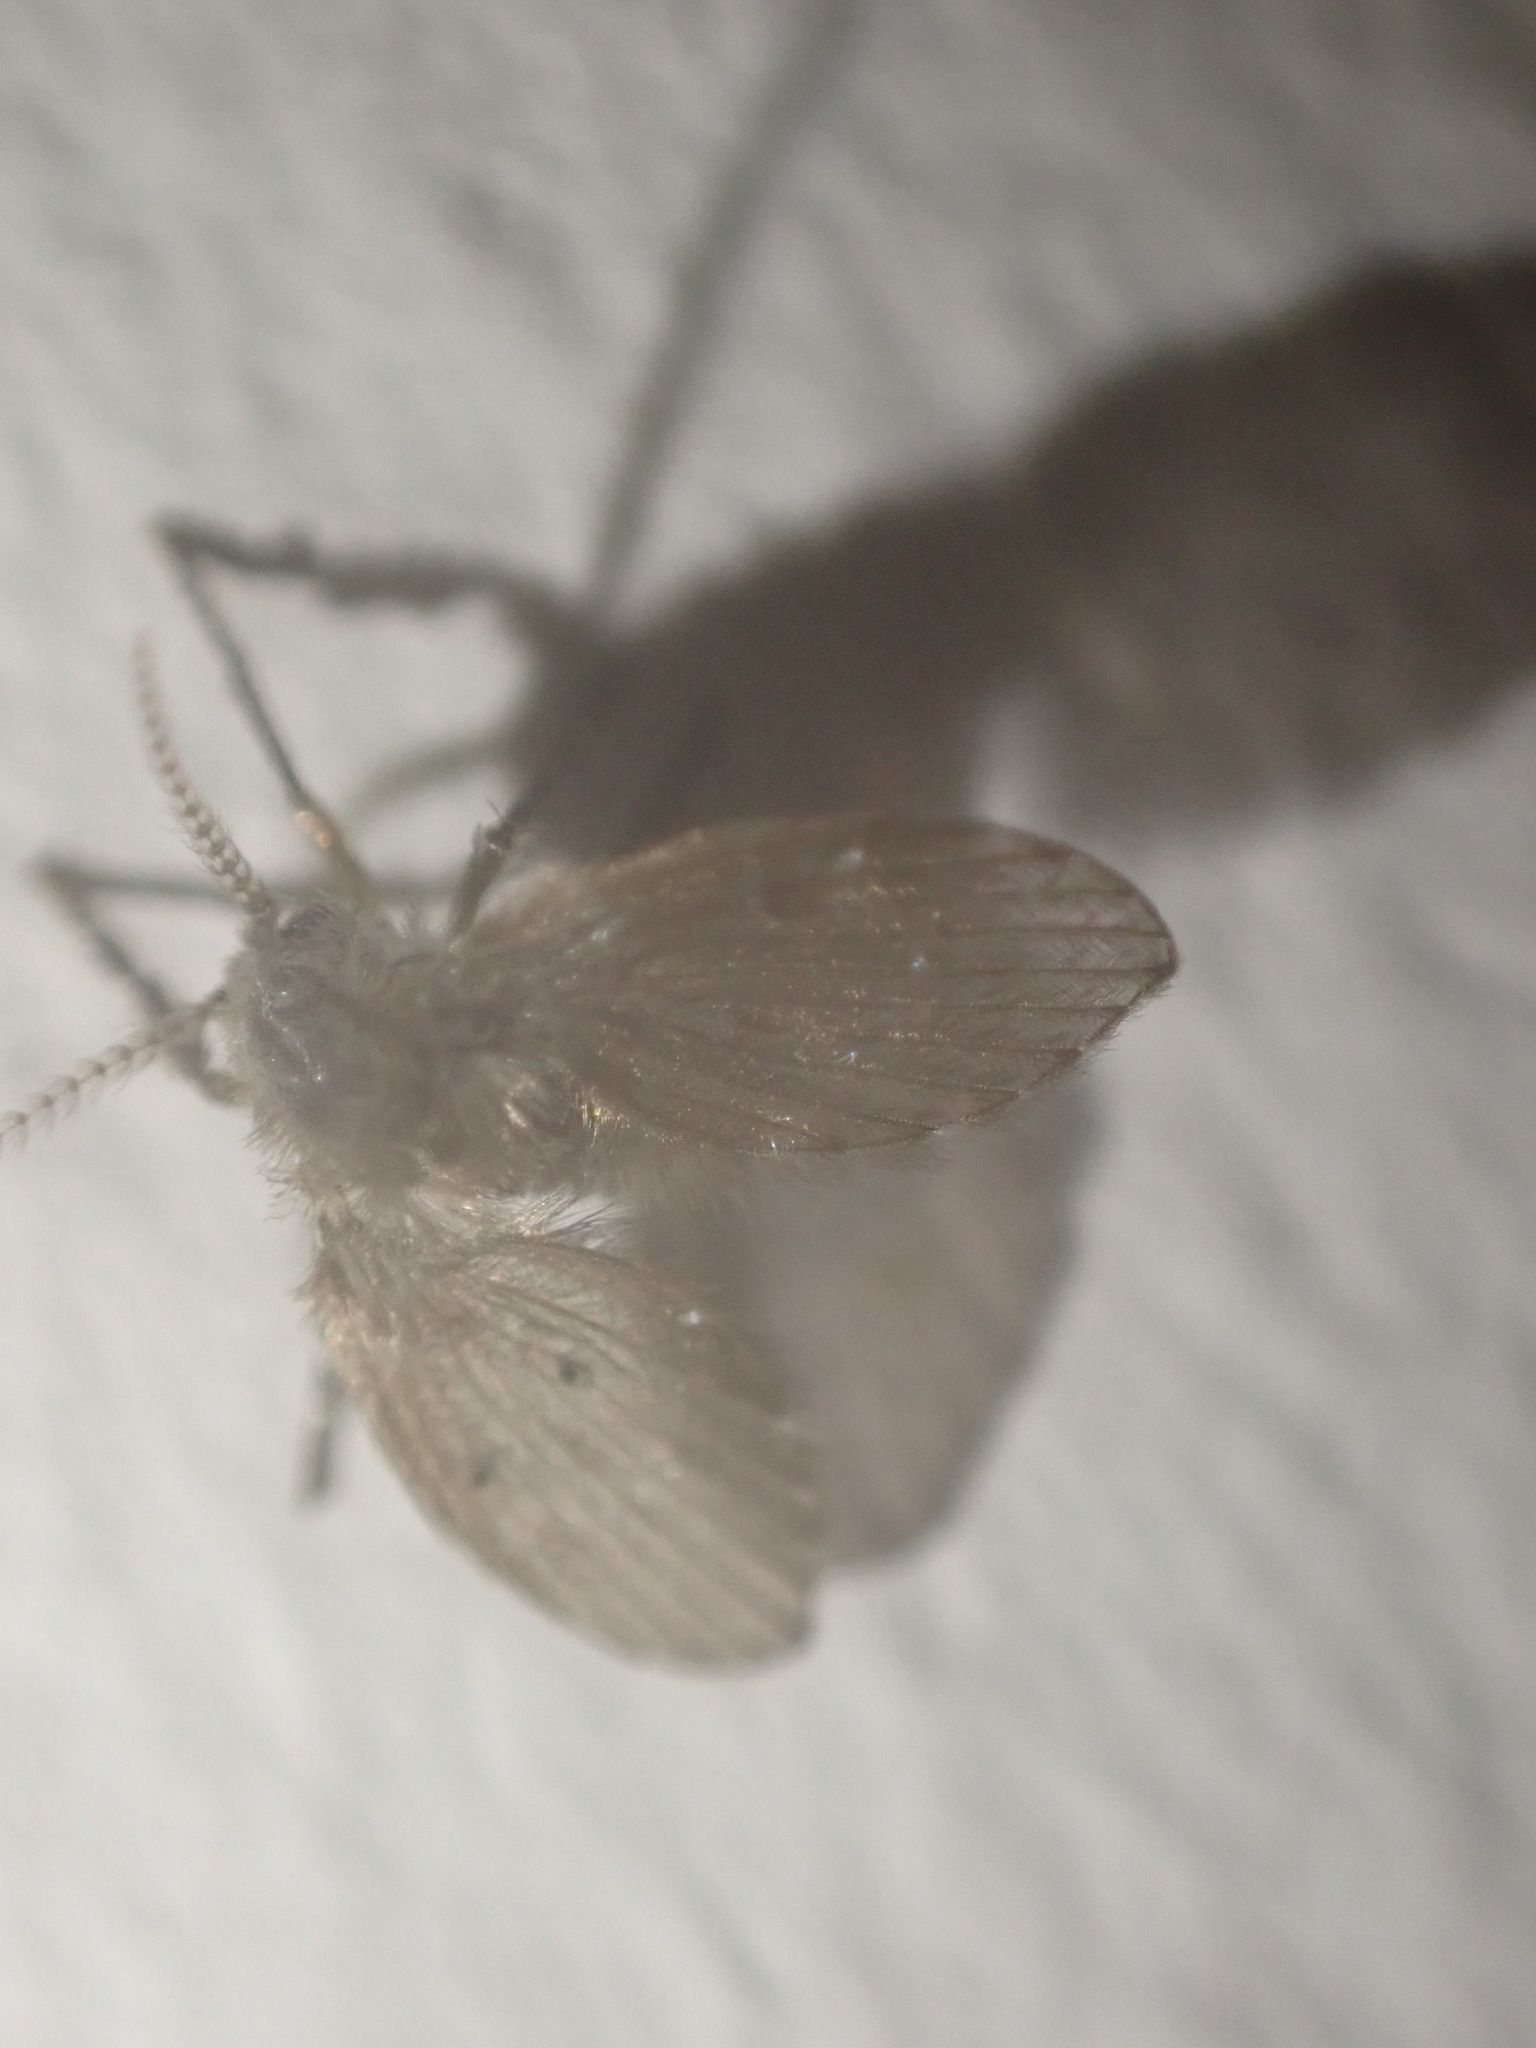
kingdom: Animalia
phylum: Arthropoda
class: Insecta
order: Diptera
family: Psychodidae
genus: Clogmia
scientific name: Clogmia albipunctatus
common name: White-spotted moth fly
